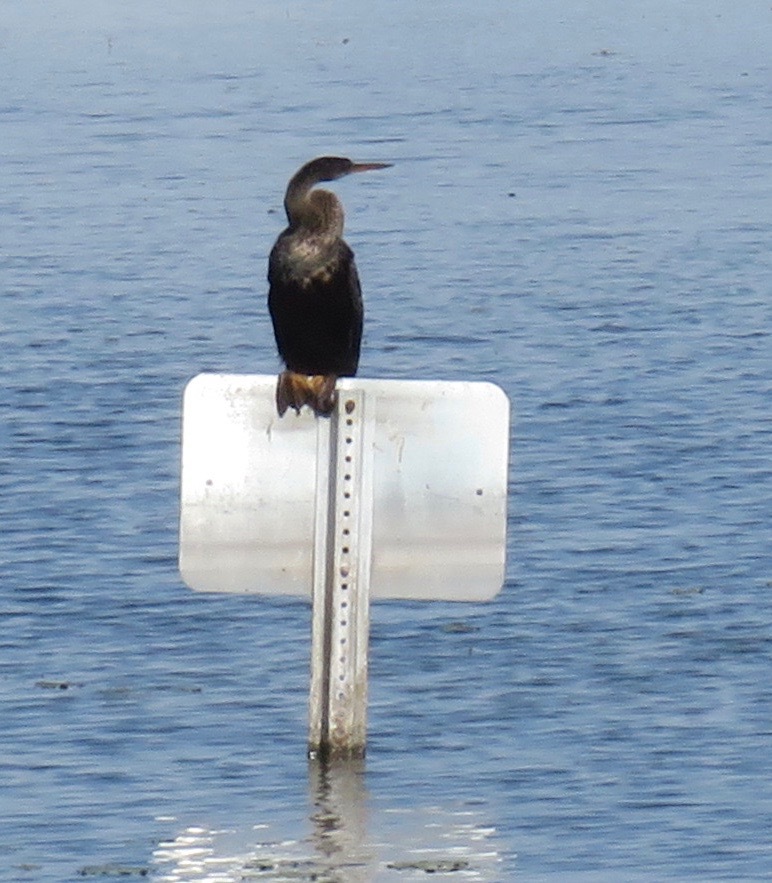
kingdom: Animalia
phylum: Chordata
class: Aves
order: Suliformes
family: Anhingidae
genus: Anhinga
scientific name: Anhinga anhinga
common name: Anhinga
